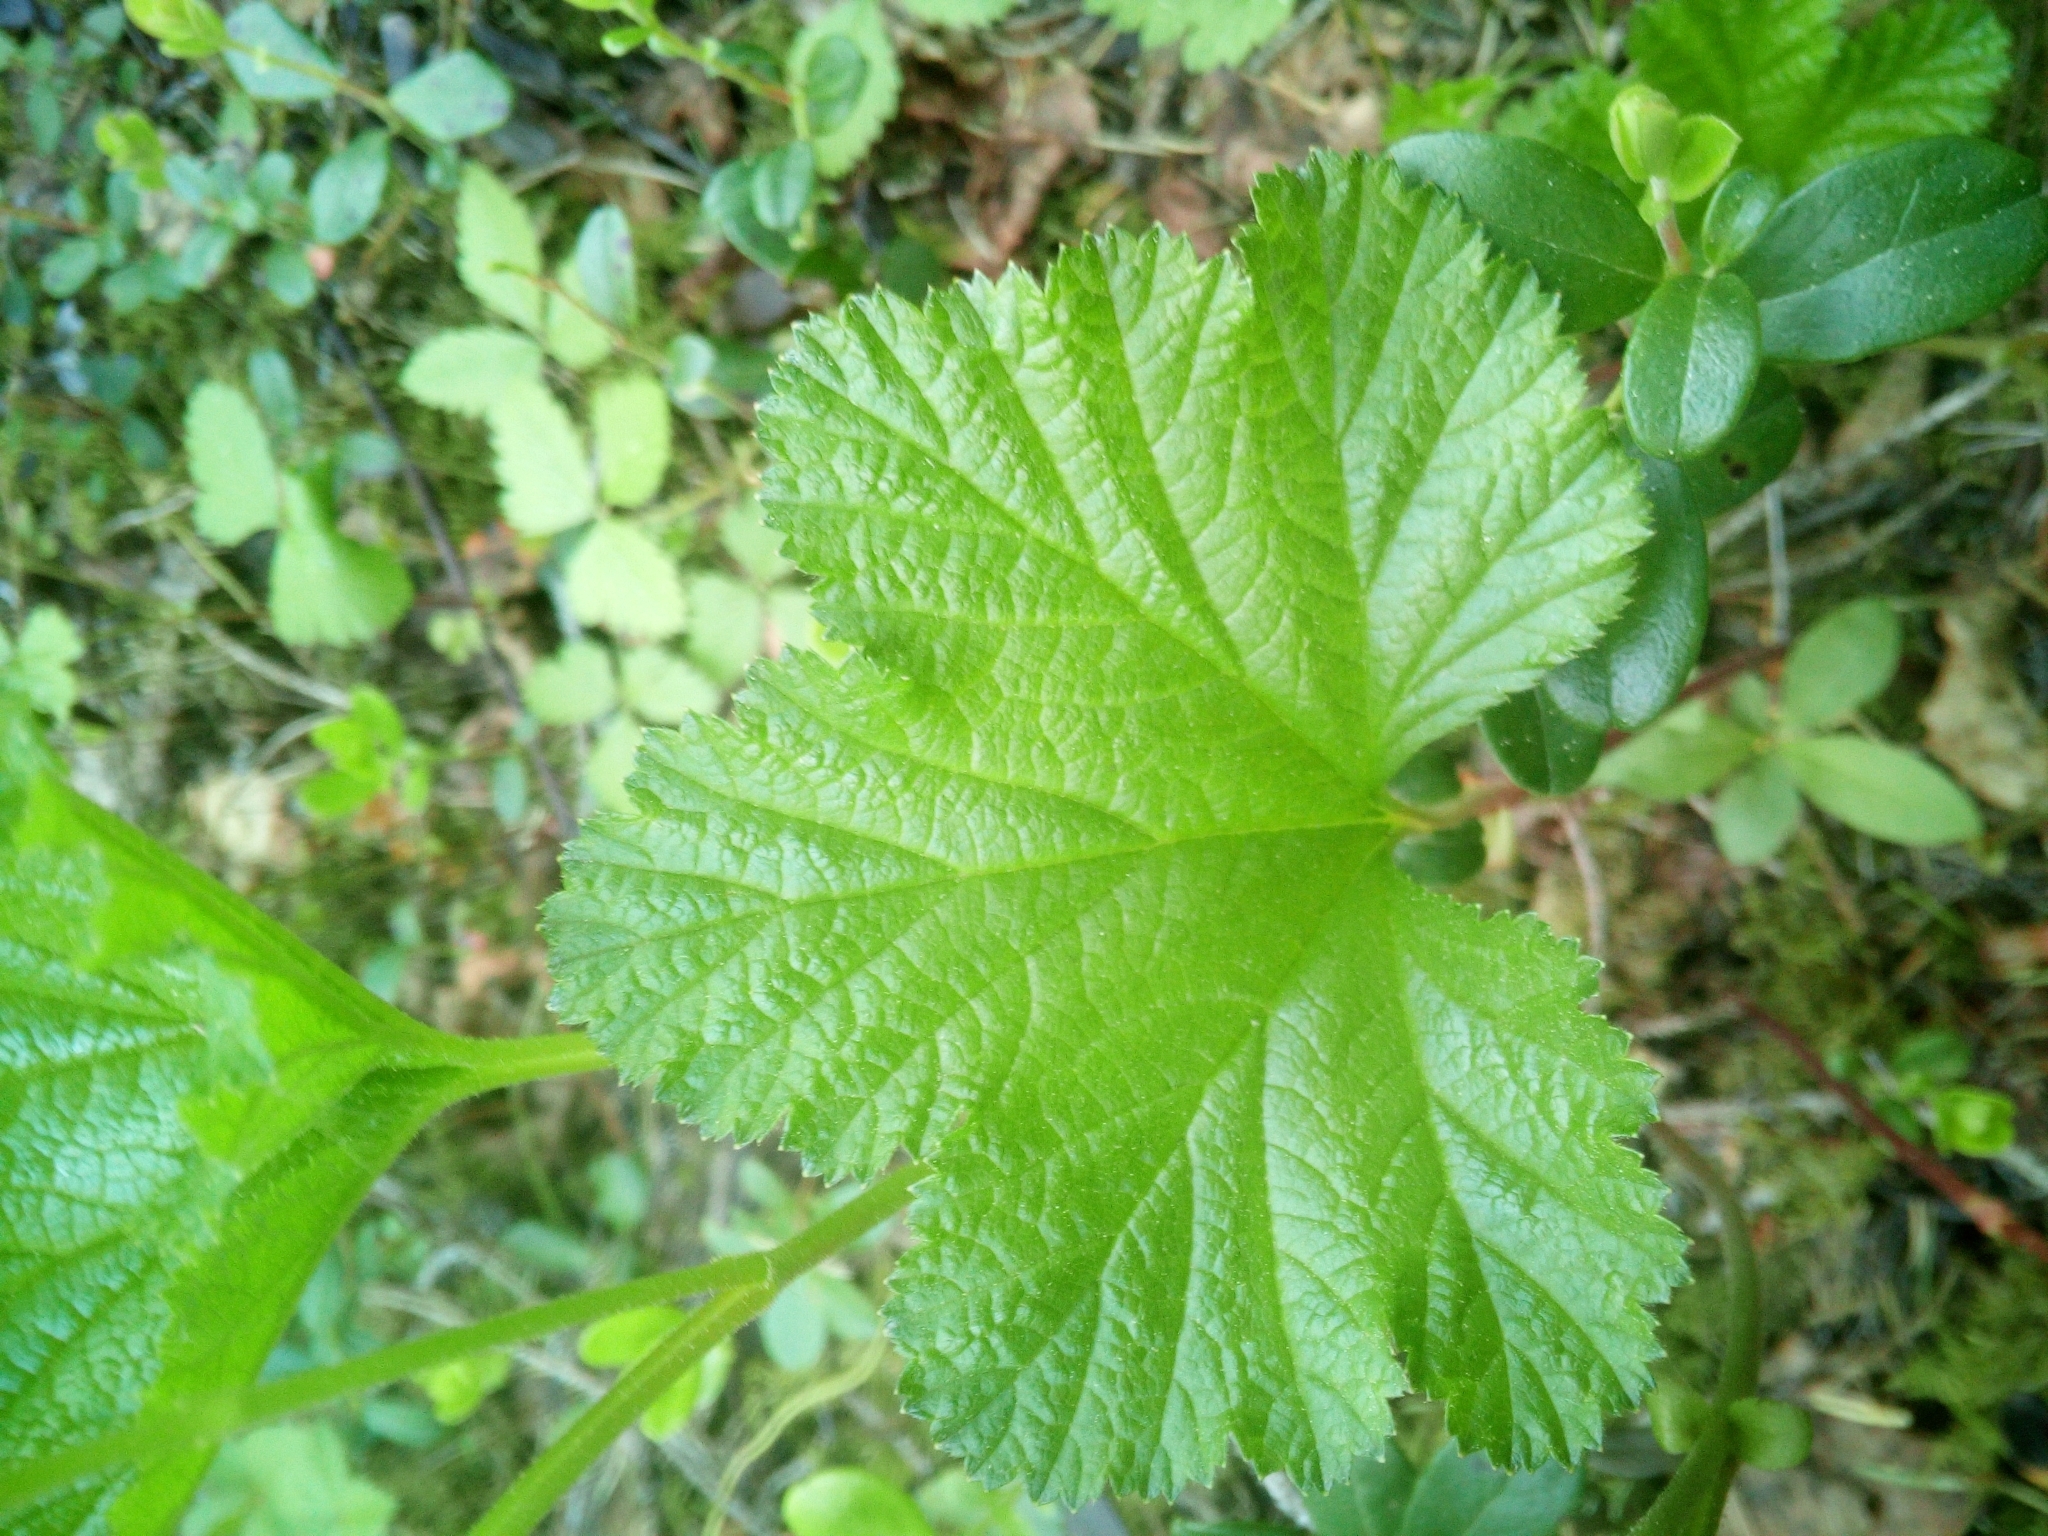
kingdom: Plantae
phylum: Tracheophyta
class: Magnoliopsida
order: Rosales
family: Rosaceae
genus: Rubus
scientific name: Rubus chamaemorus
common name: Cloudberry
